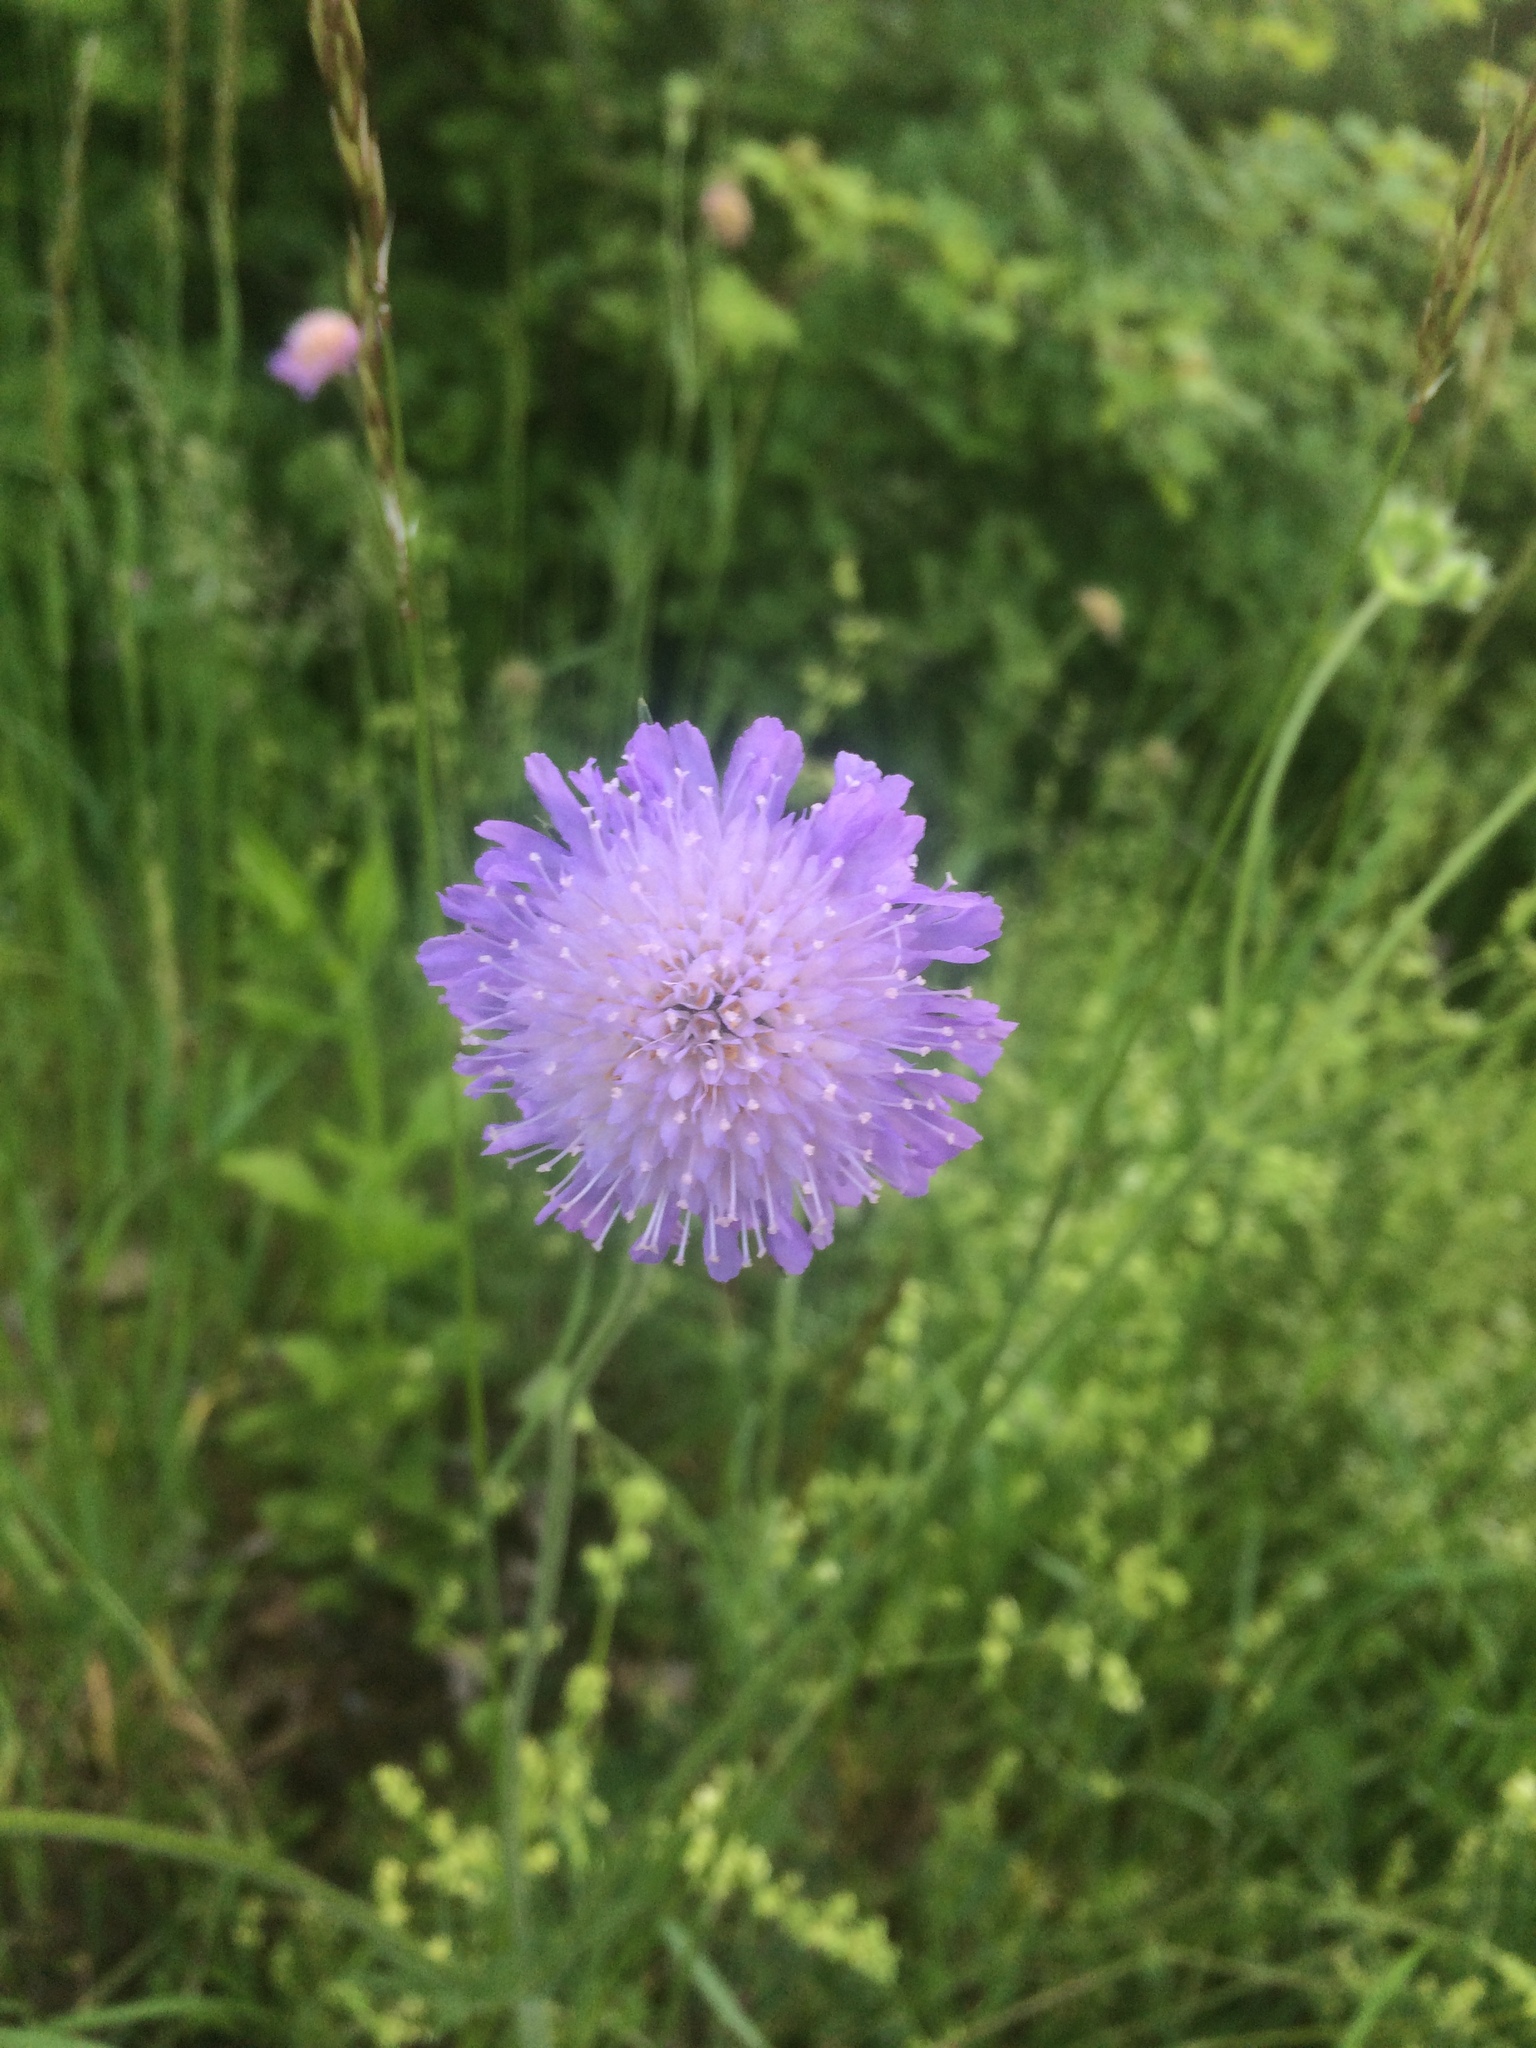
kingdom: Plantae
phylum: Tracheophyta
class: Magnoliopsida
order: Dipsacales
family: Caprifoliaceae
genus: Knautia
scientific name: Knautia arvensis
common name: Field scabiosa
